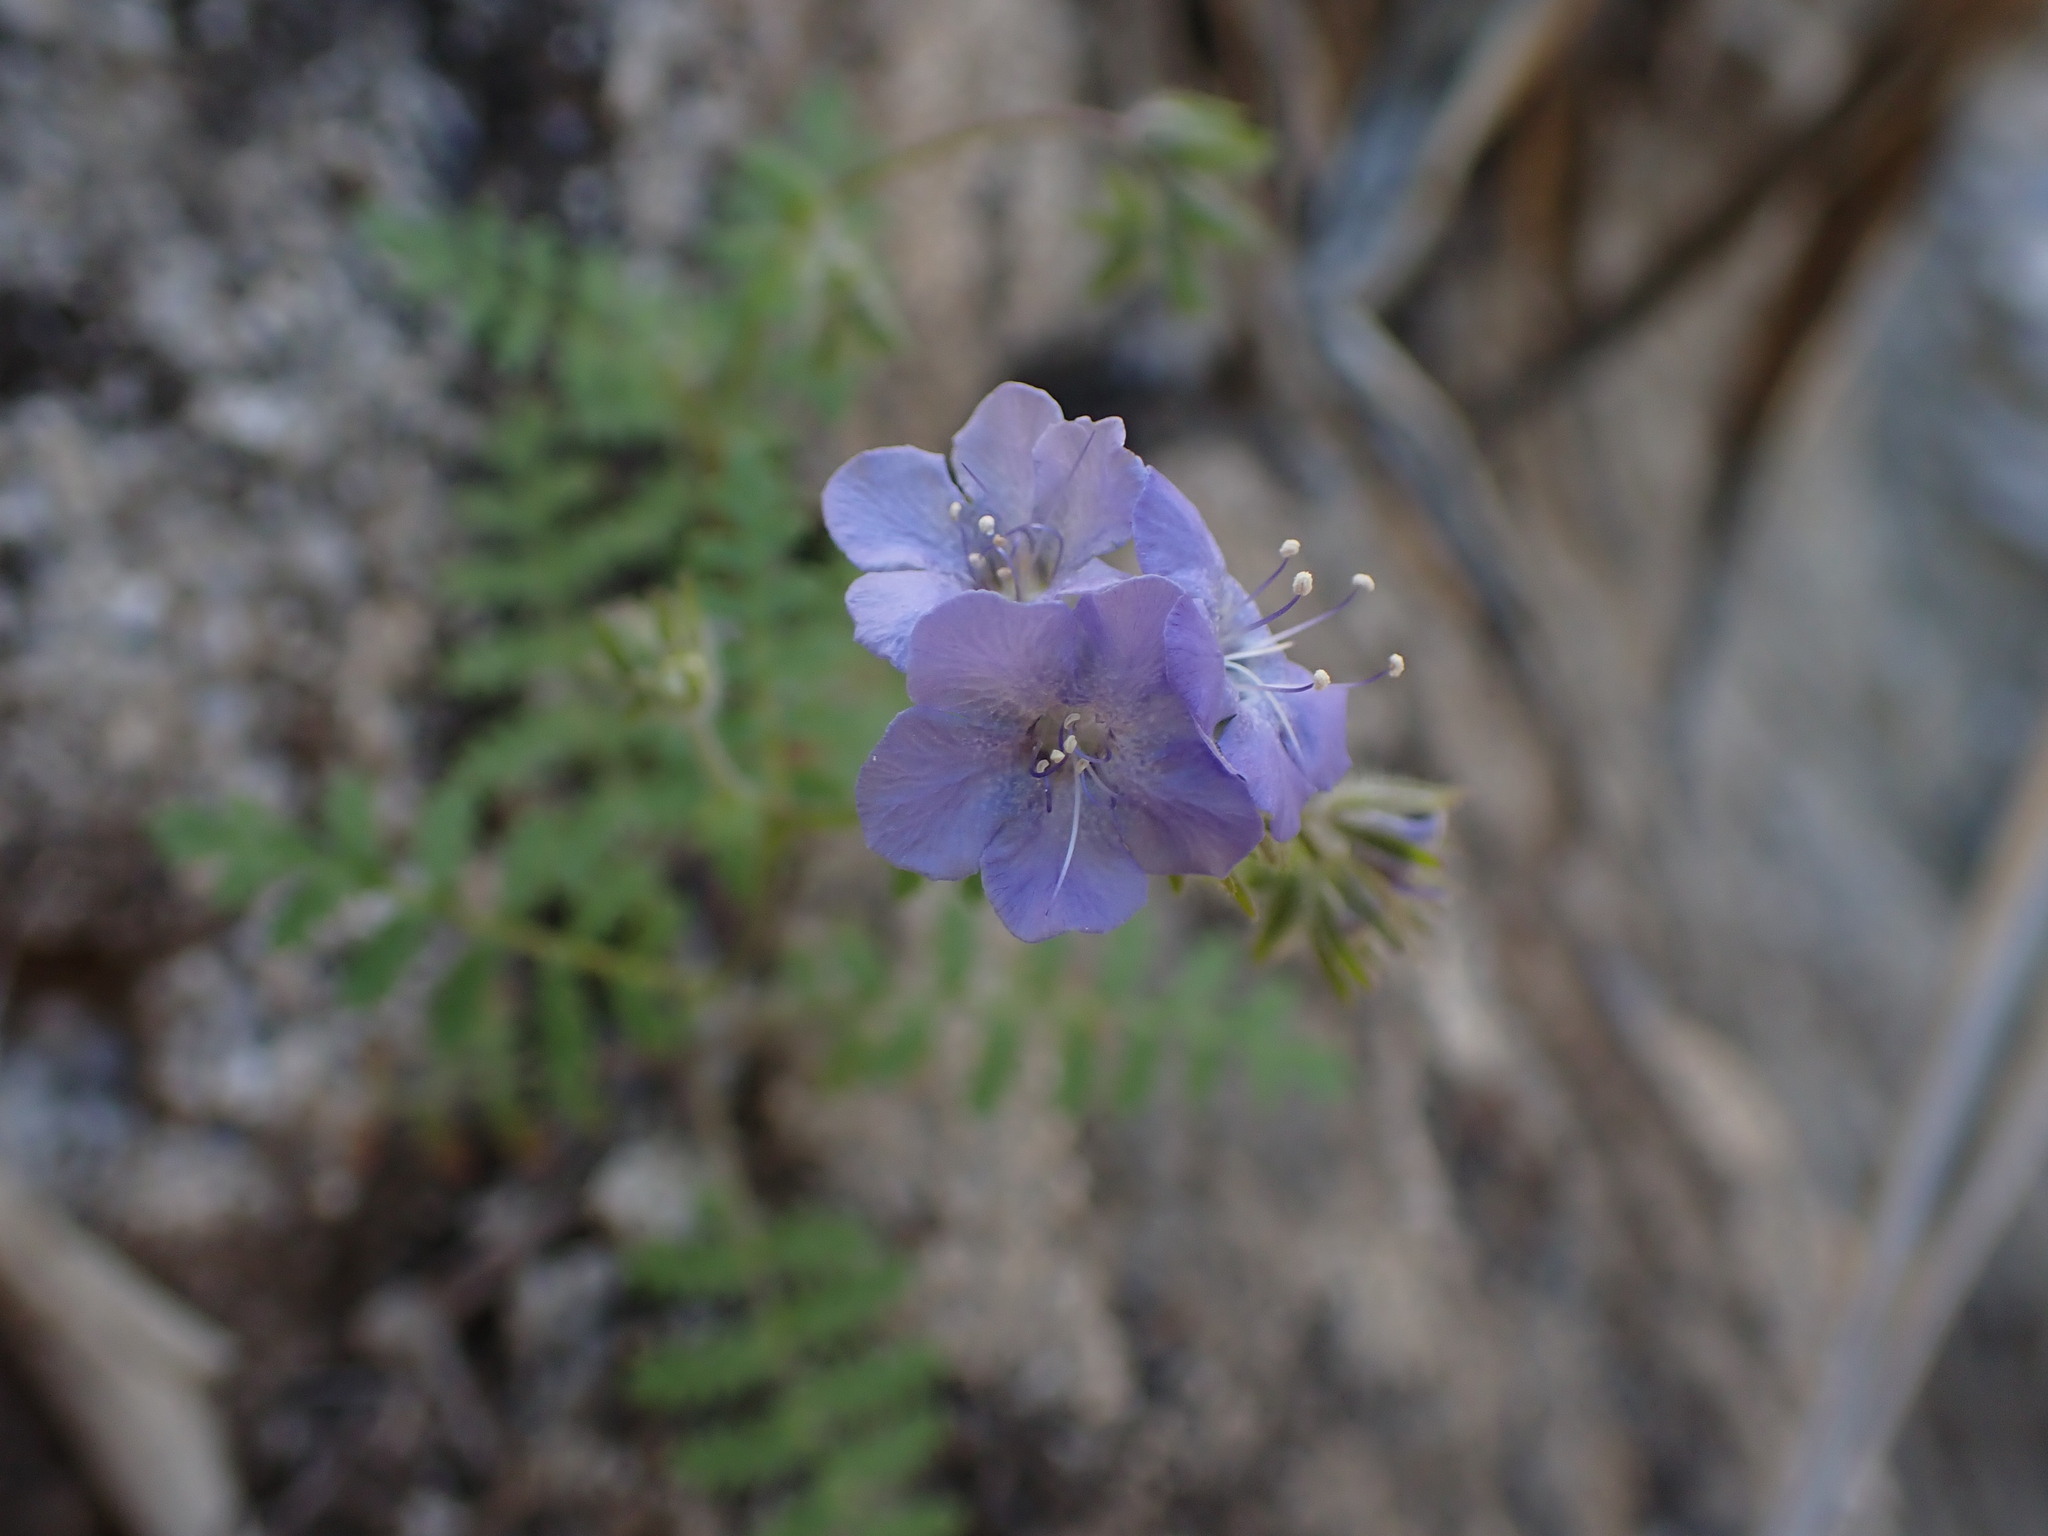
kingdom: Plantae
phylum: Tracheophyta
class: Magnoliopsida
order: Boraginales
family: Hydrophyllaceae
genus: Phacelia
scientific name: Phacelia distans
